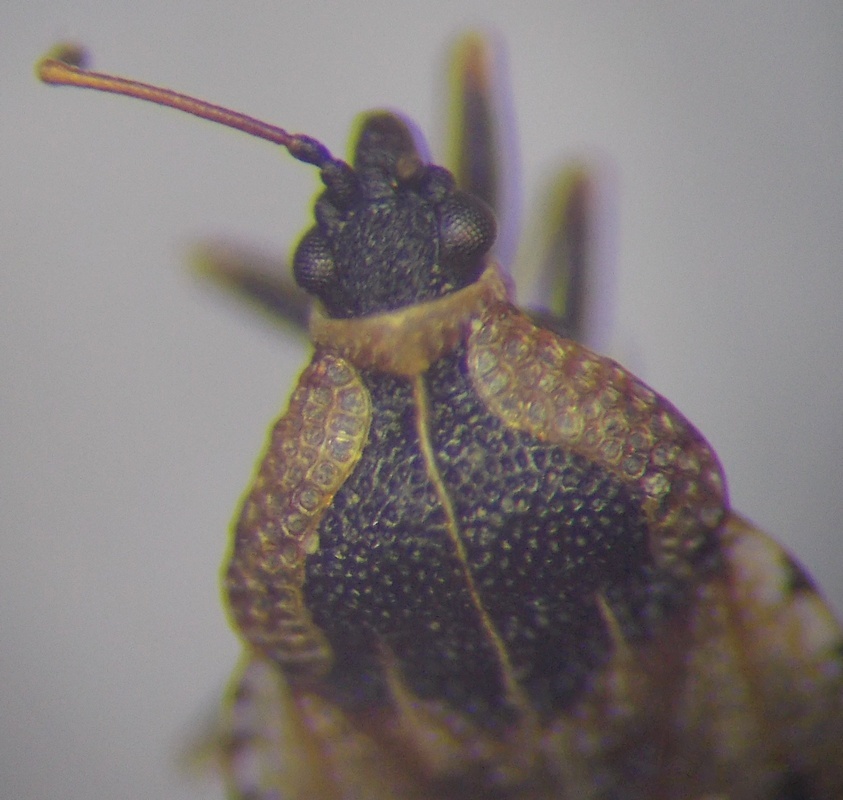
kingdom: Animalia
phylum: Arthropoda
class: Insecta
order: Hemiptera
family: Tingidae
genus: Dictyla
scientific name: Dictyla echii
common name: Lace bug
